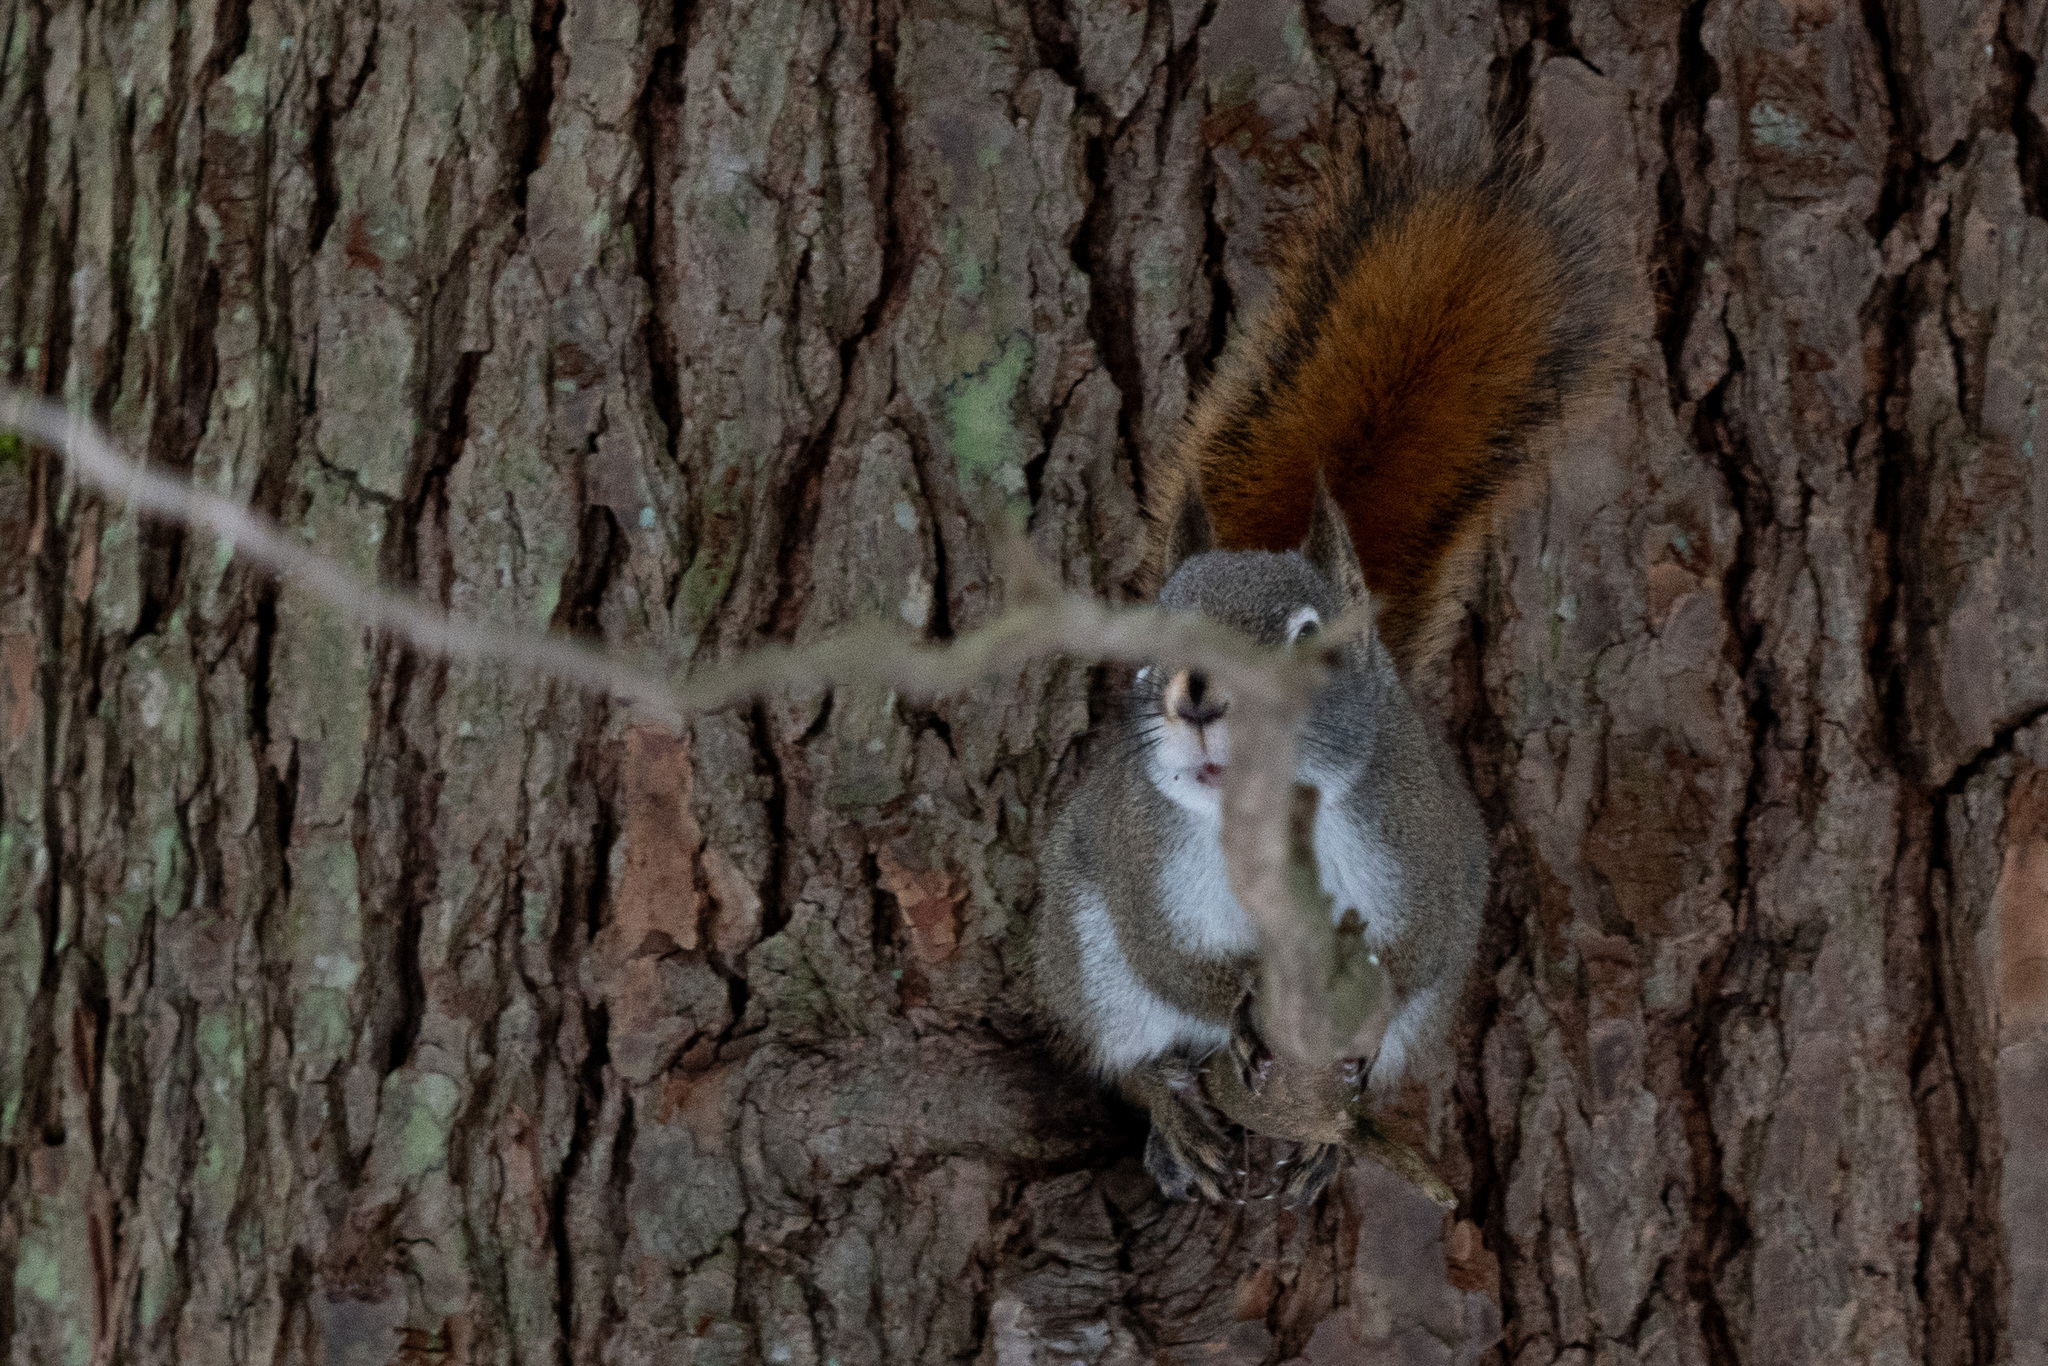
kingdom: Animalia
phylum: Chordata
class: Mammalia
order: Rodentia
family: Sciuridae
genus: Tamiasciurus
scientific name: Tamiasciurus hudsonicus
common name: Red squirrel
